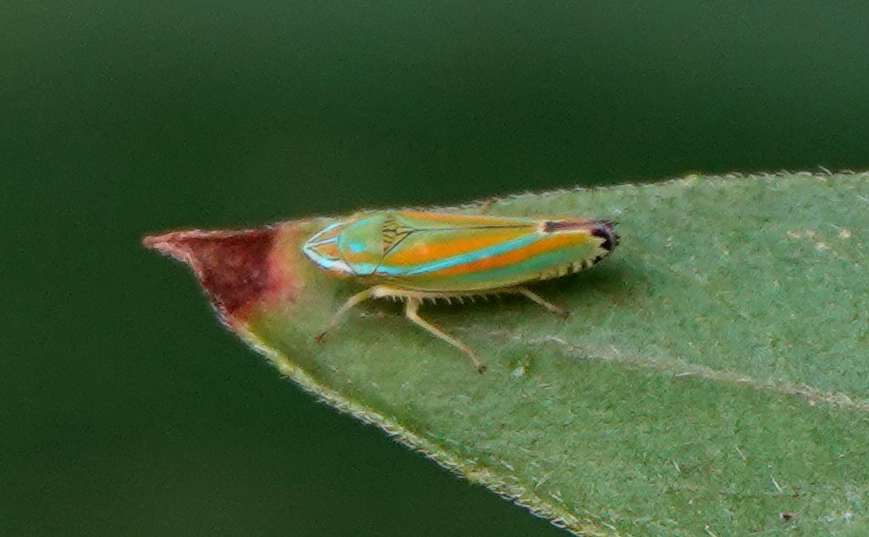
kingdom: Animalia
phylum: Arthropoda
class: Insecta
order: Hemiptera
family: Cicadellidae
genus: Graphocephala
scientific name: Graphocephala versuta
